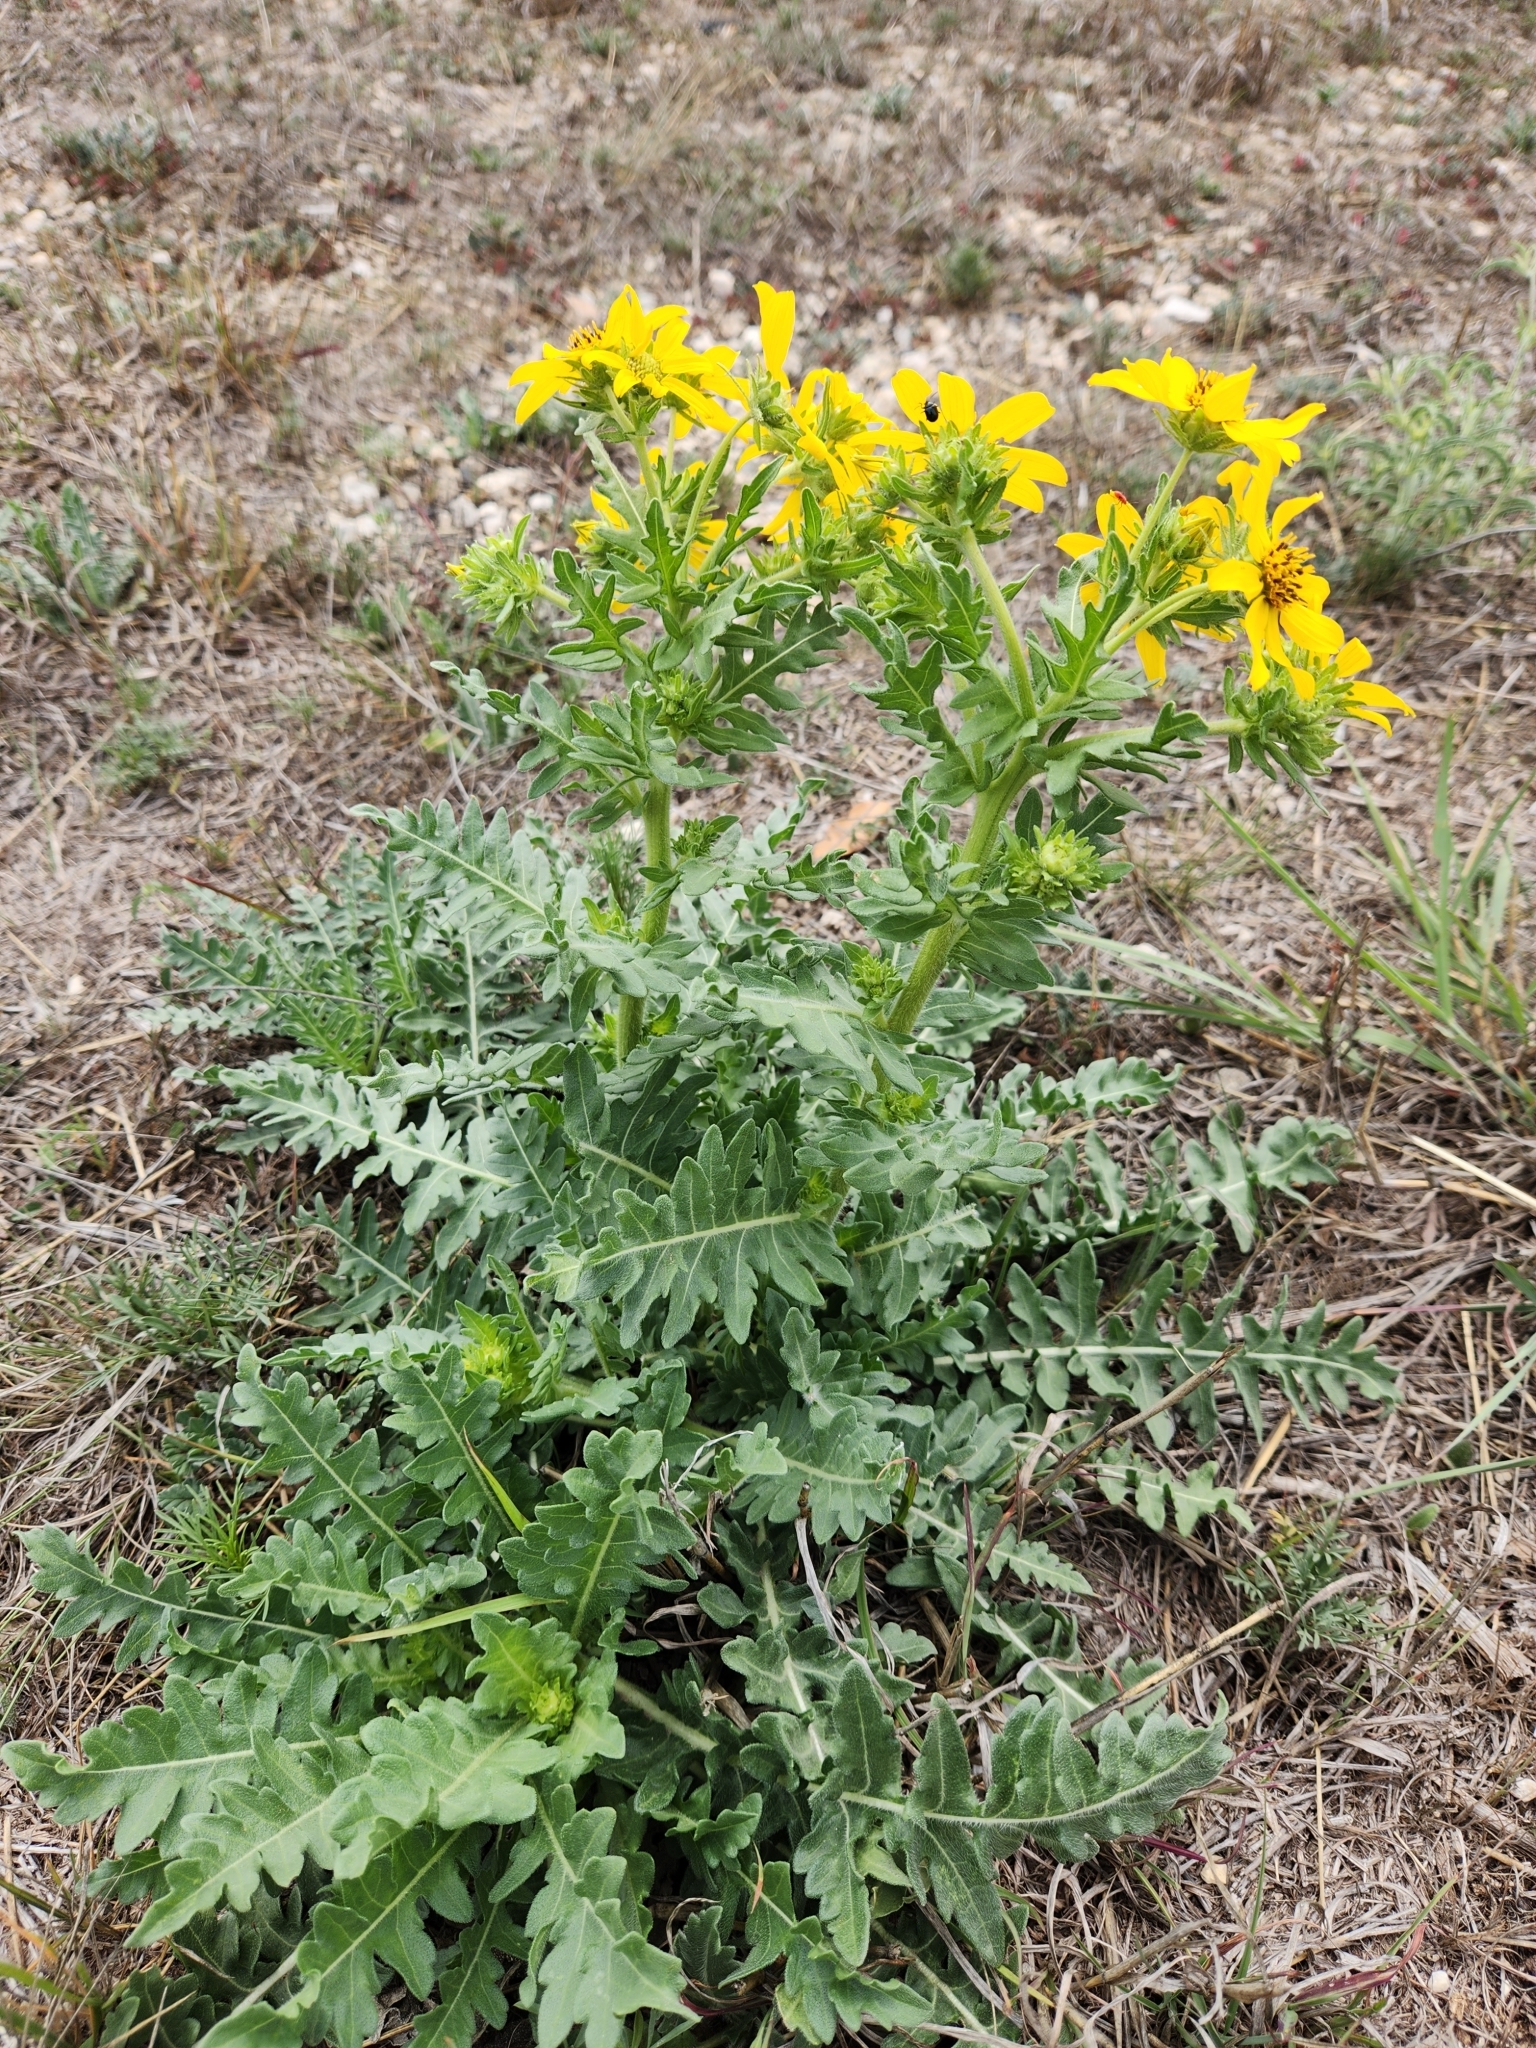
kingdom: Plantae
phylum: Tracheophyta
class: Magnoliopsida
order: Asterales
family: Asteraceae
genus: Engelmannia
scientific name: Engelmannia peristenia
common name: Engelmann's daisy
